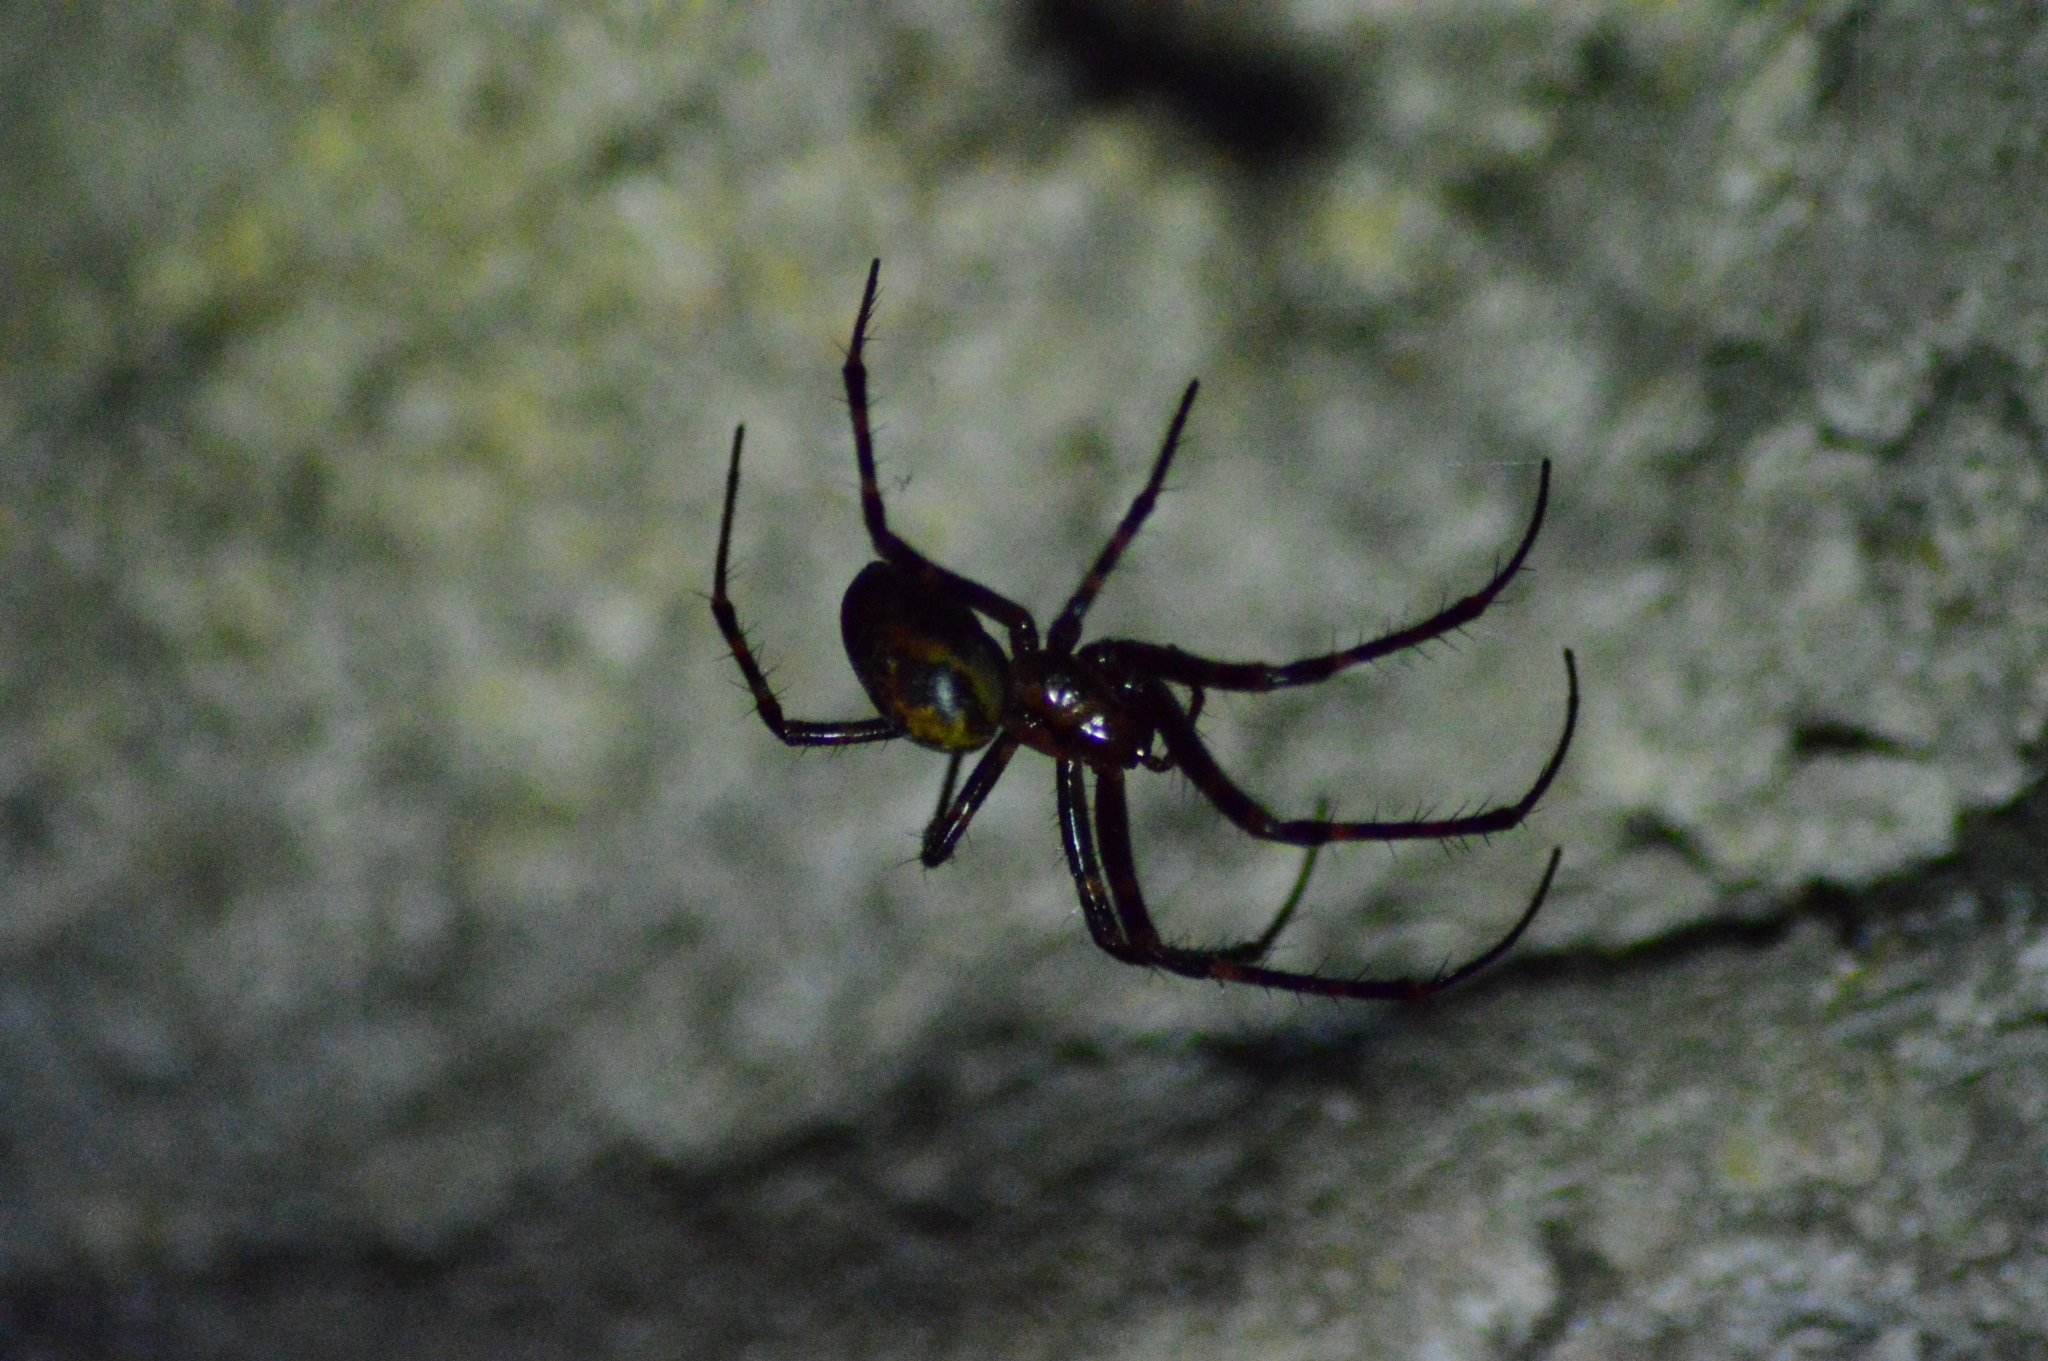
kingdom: Animalia
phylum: Arthropoda
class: Arachnida
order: Araneae
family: Tetragnathidae
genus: Meta
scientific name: Meta menardi
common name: Cave spider
